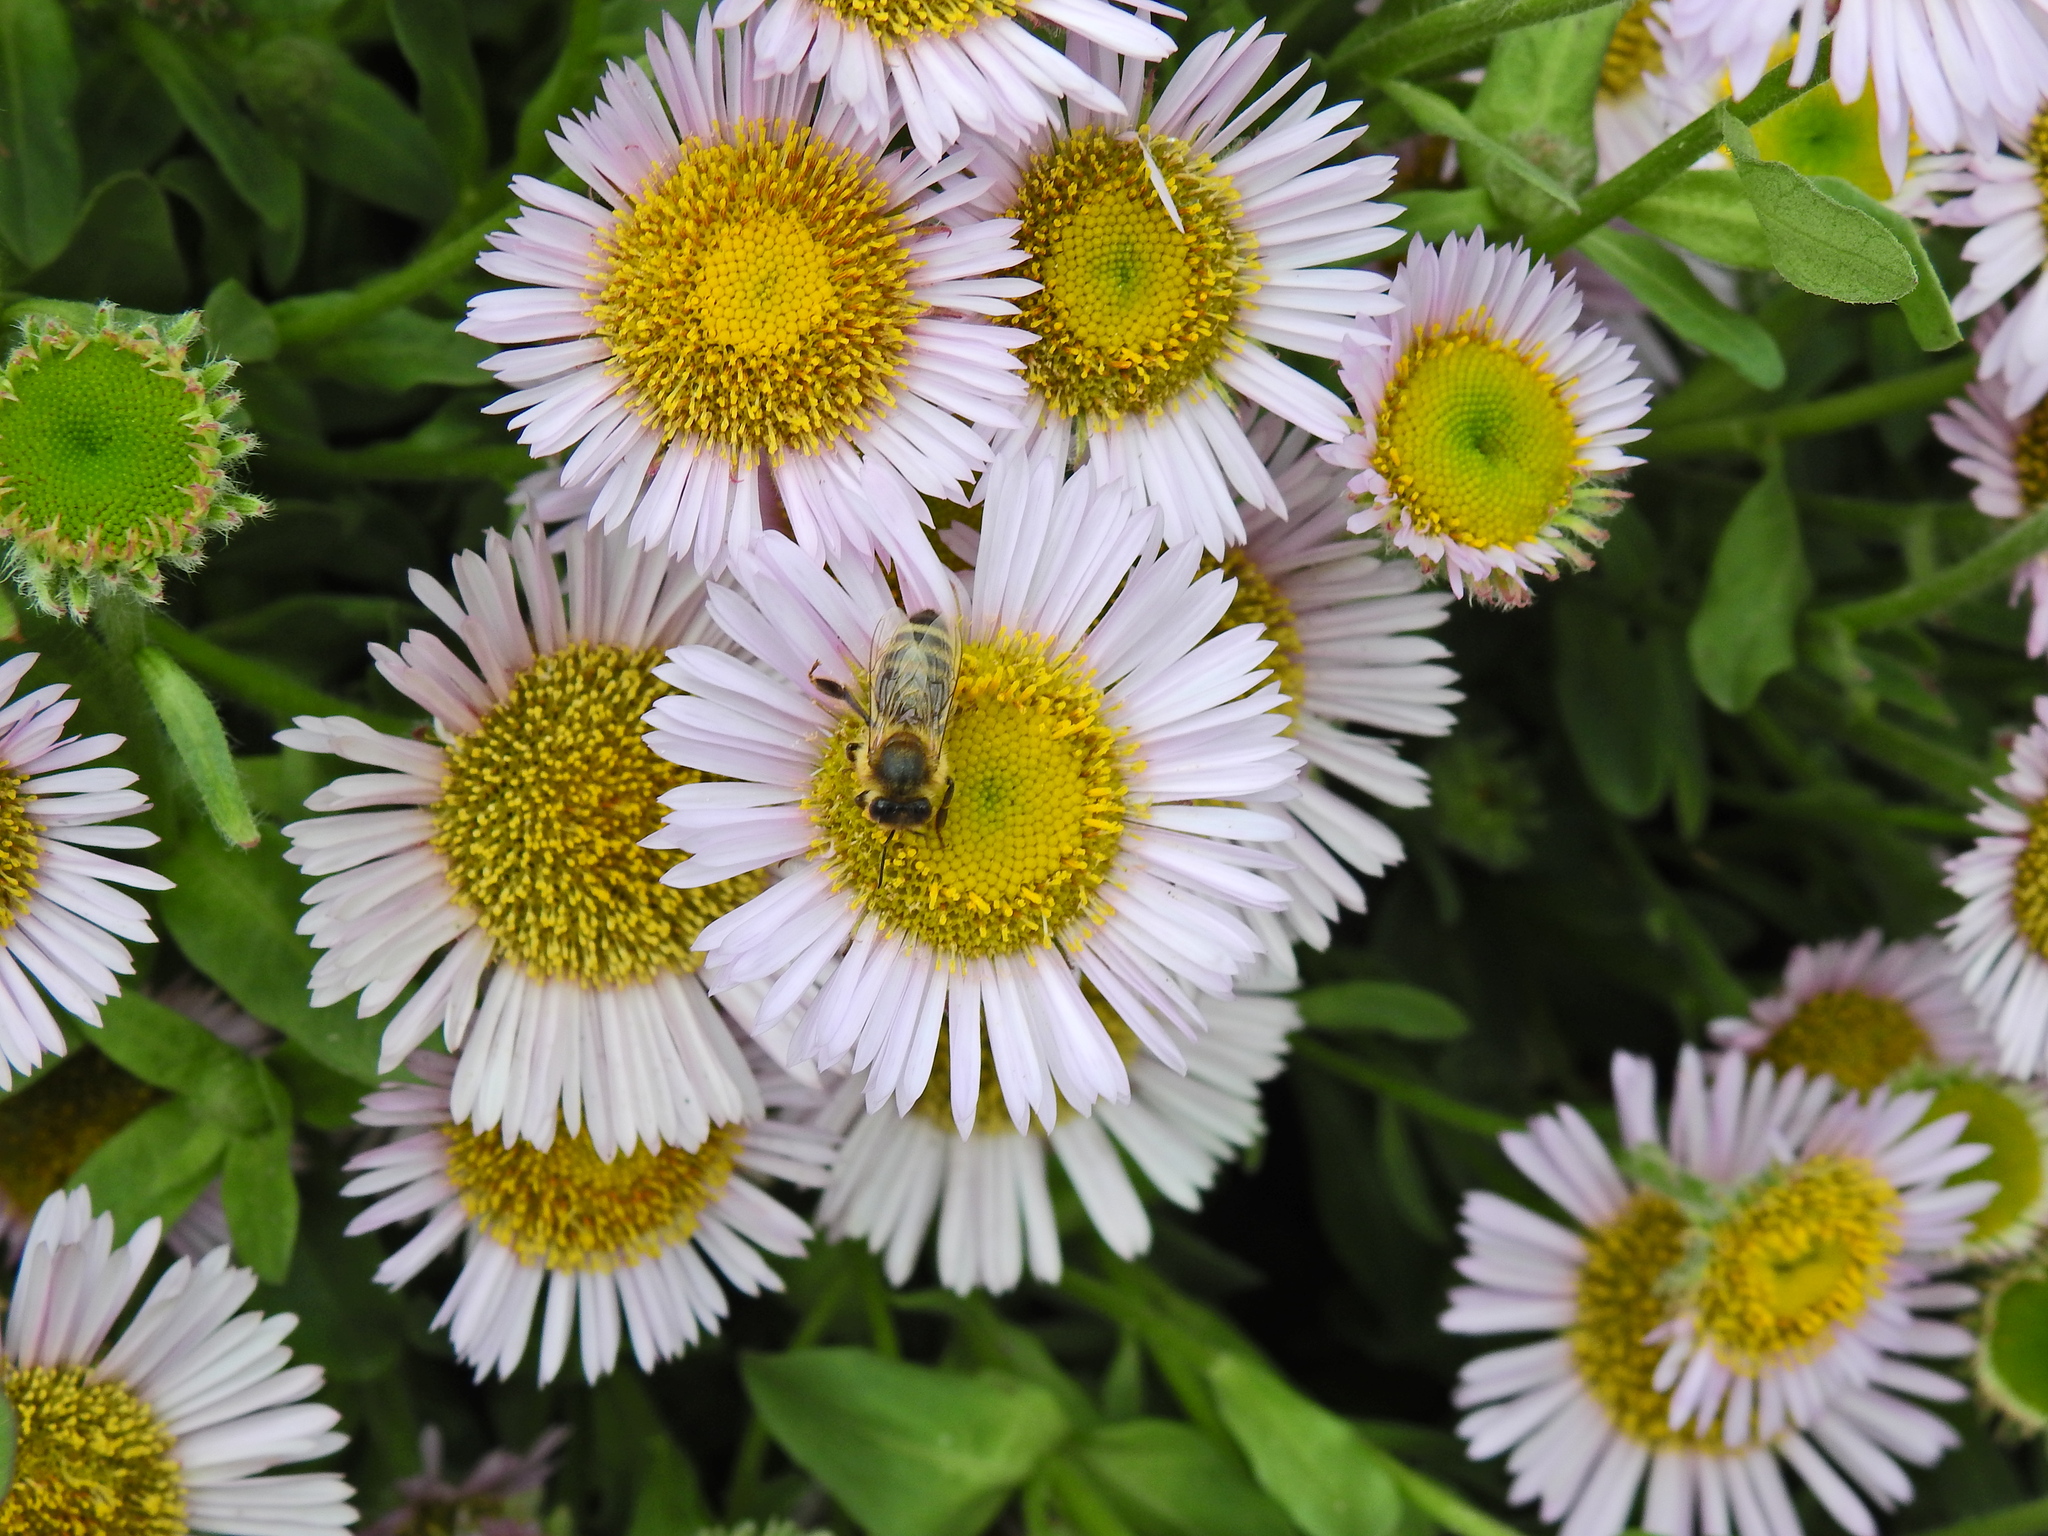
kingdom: Animalia
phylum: Arthropoda
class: Insecta
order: Hymenoptera
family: Apidae
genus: Apis
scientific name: Apis mellifera
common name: Honey bee
